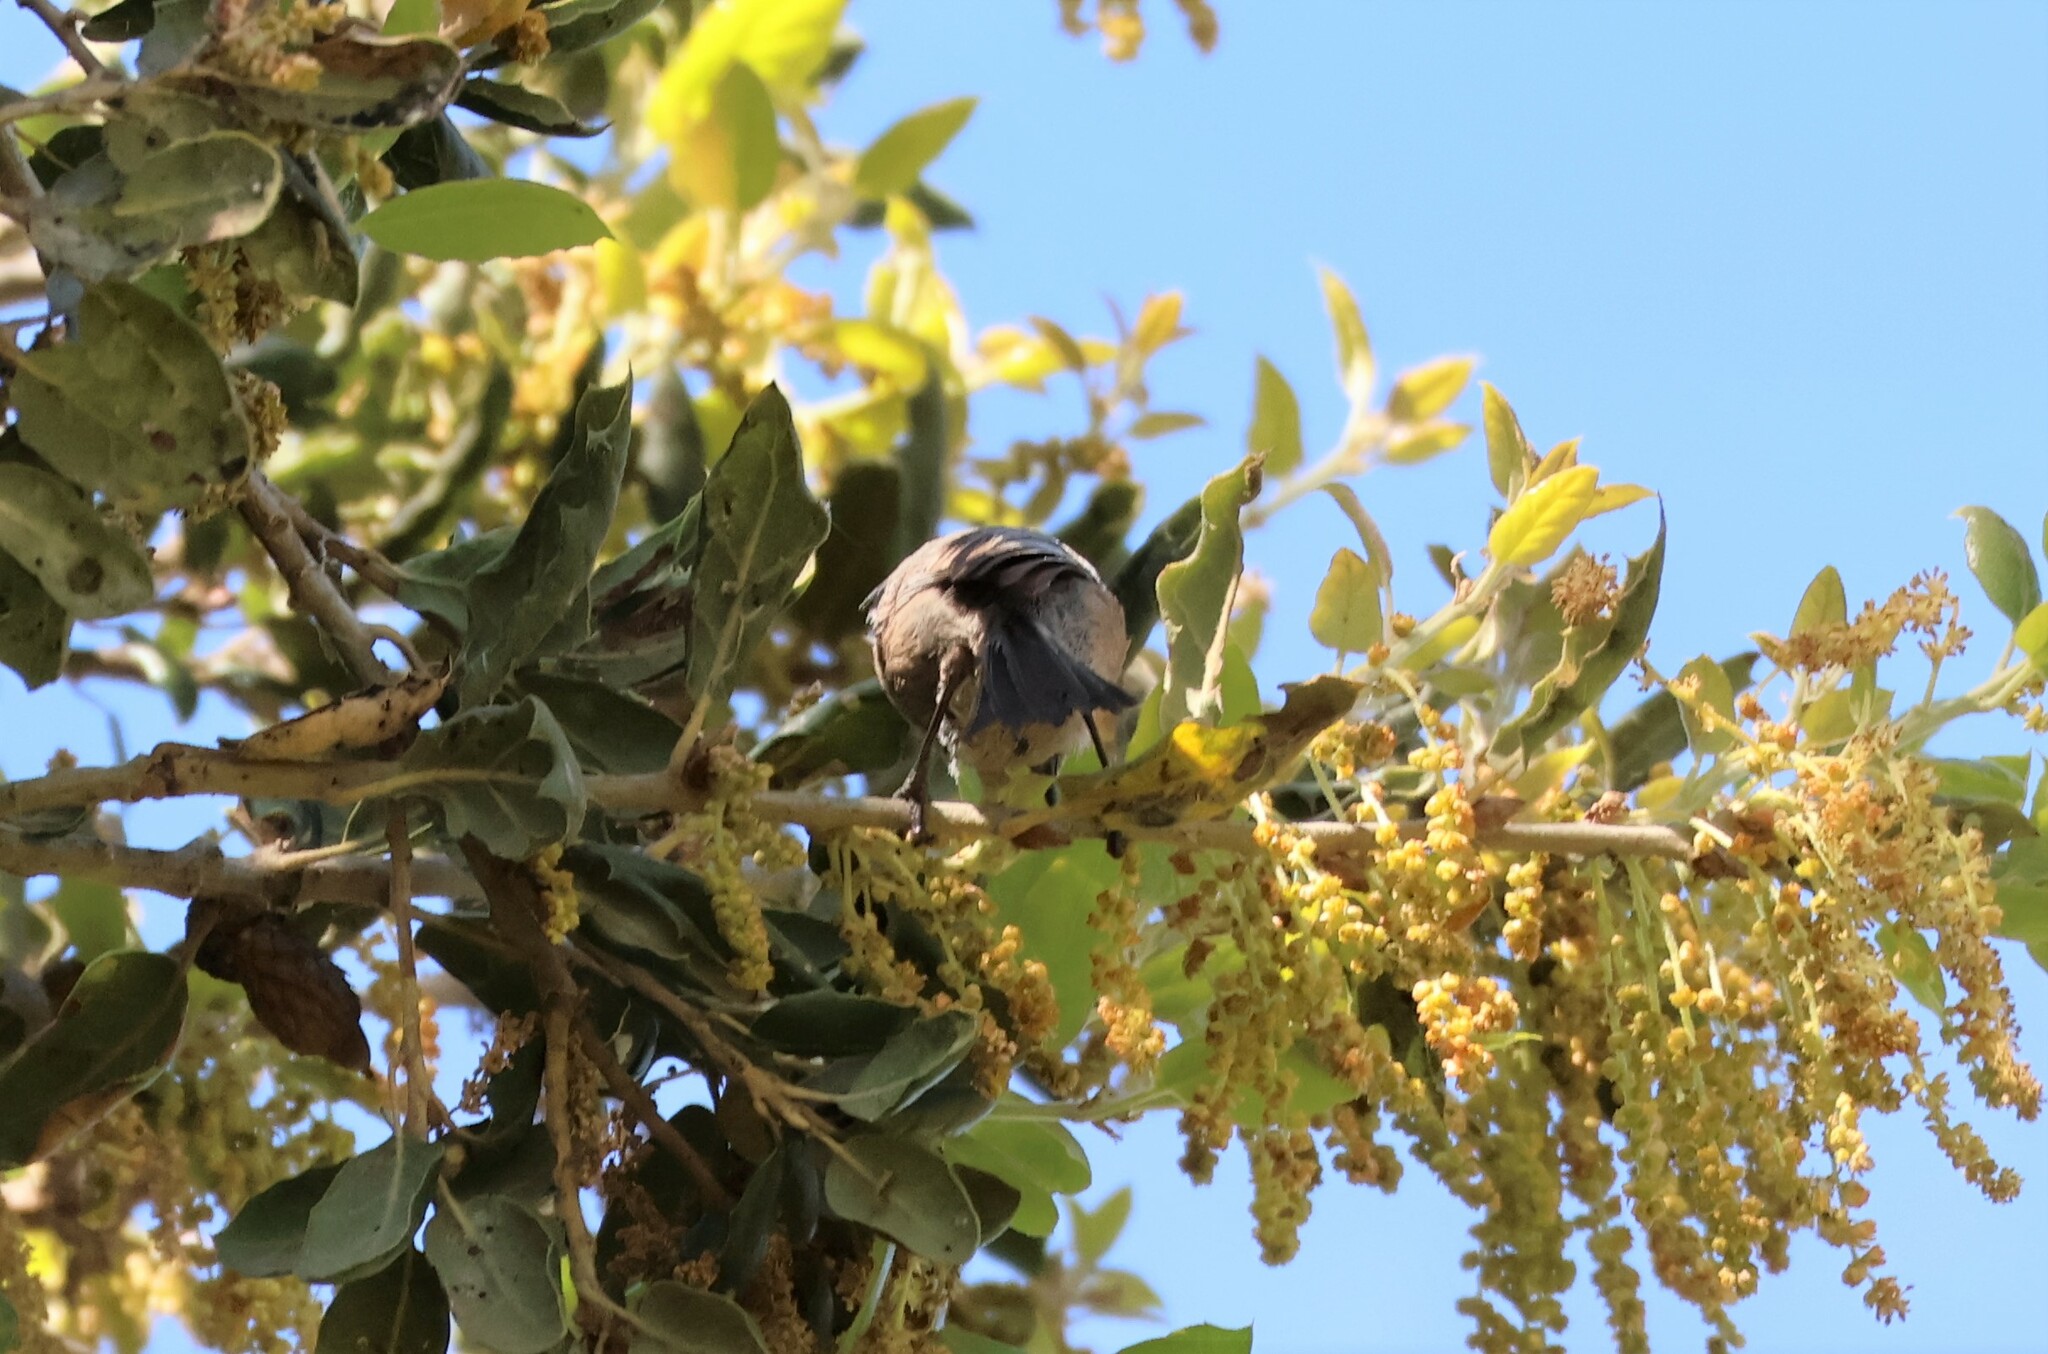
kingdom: Animalia
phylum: Chordata
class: Aves
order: Passeriformes
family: Aegithalidae
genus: Psaltriparus
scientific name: Psaltriparus minimus
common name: American bushtit
